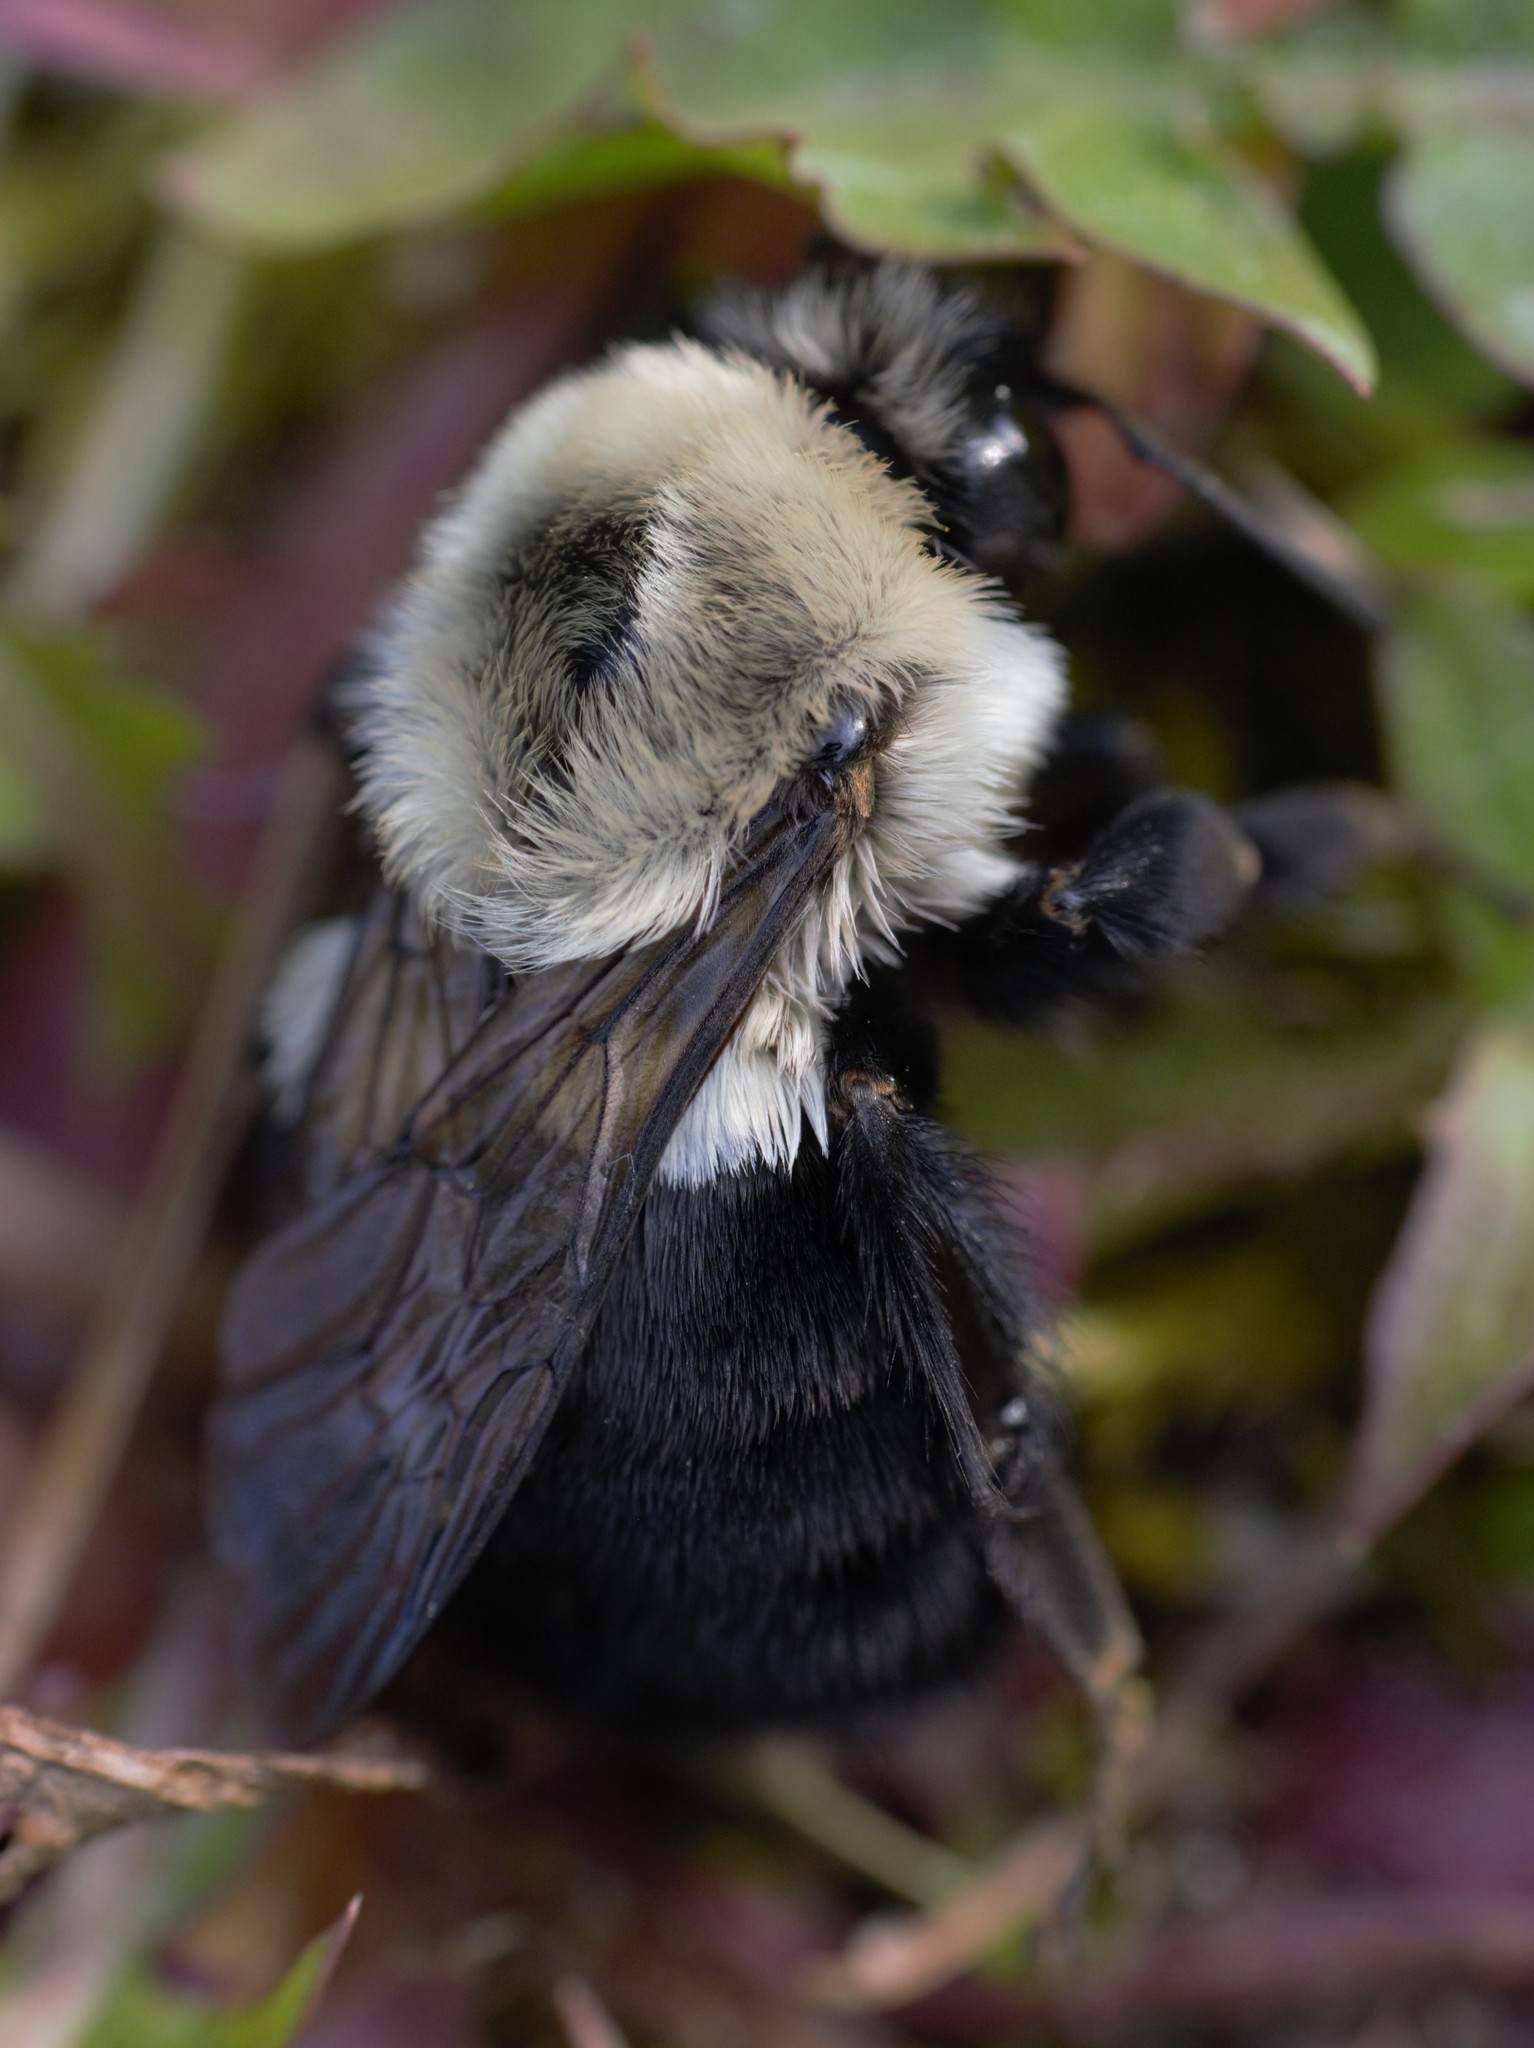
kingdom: Animalia
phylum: Arthropoda
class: Insecta
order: Hymenoptera
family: Apidae
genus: Bombus
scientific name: Bombus impatiens
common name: Common eastern bumble bee
